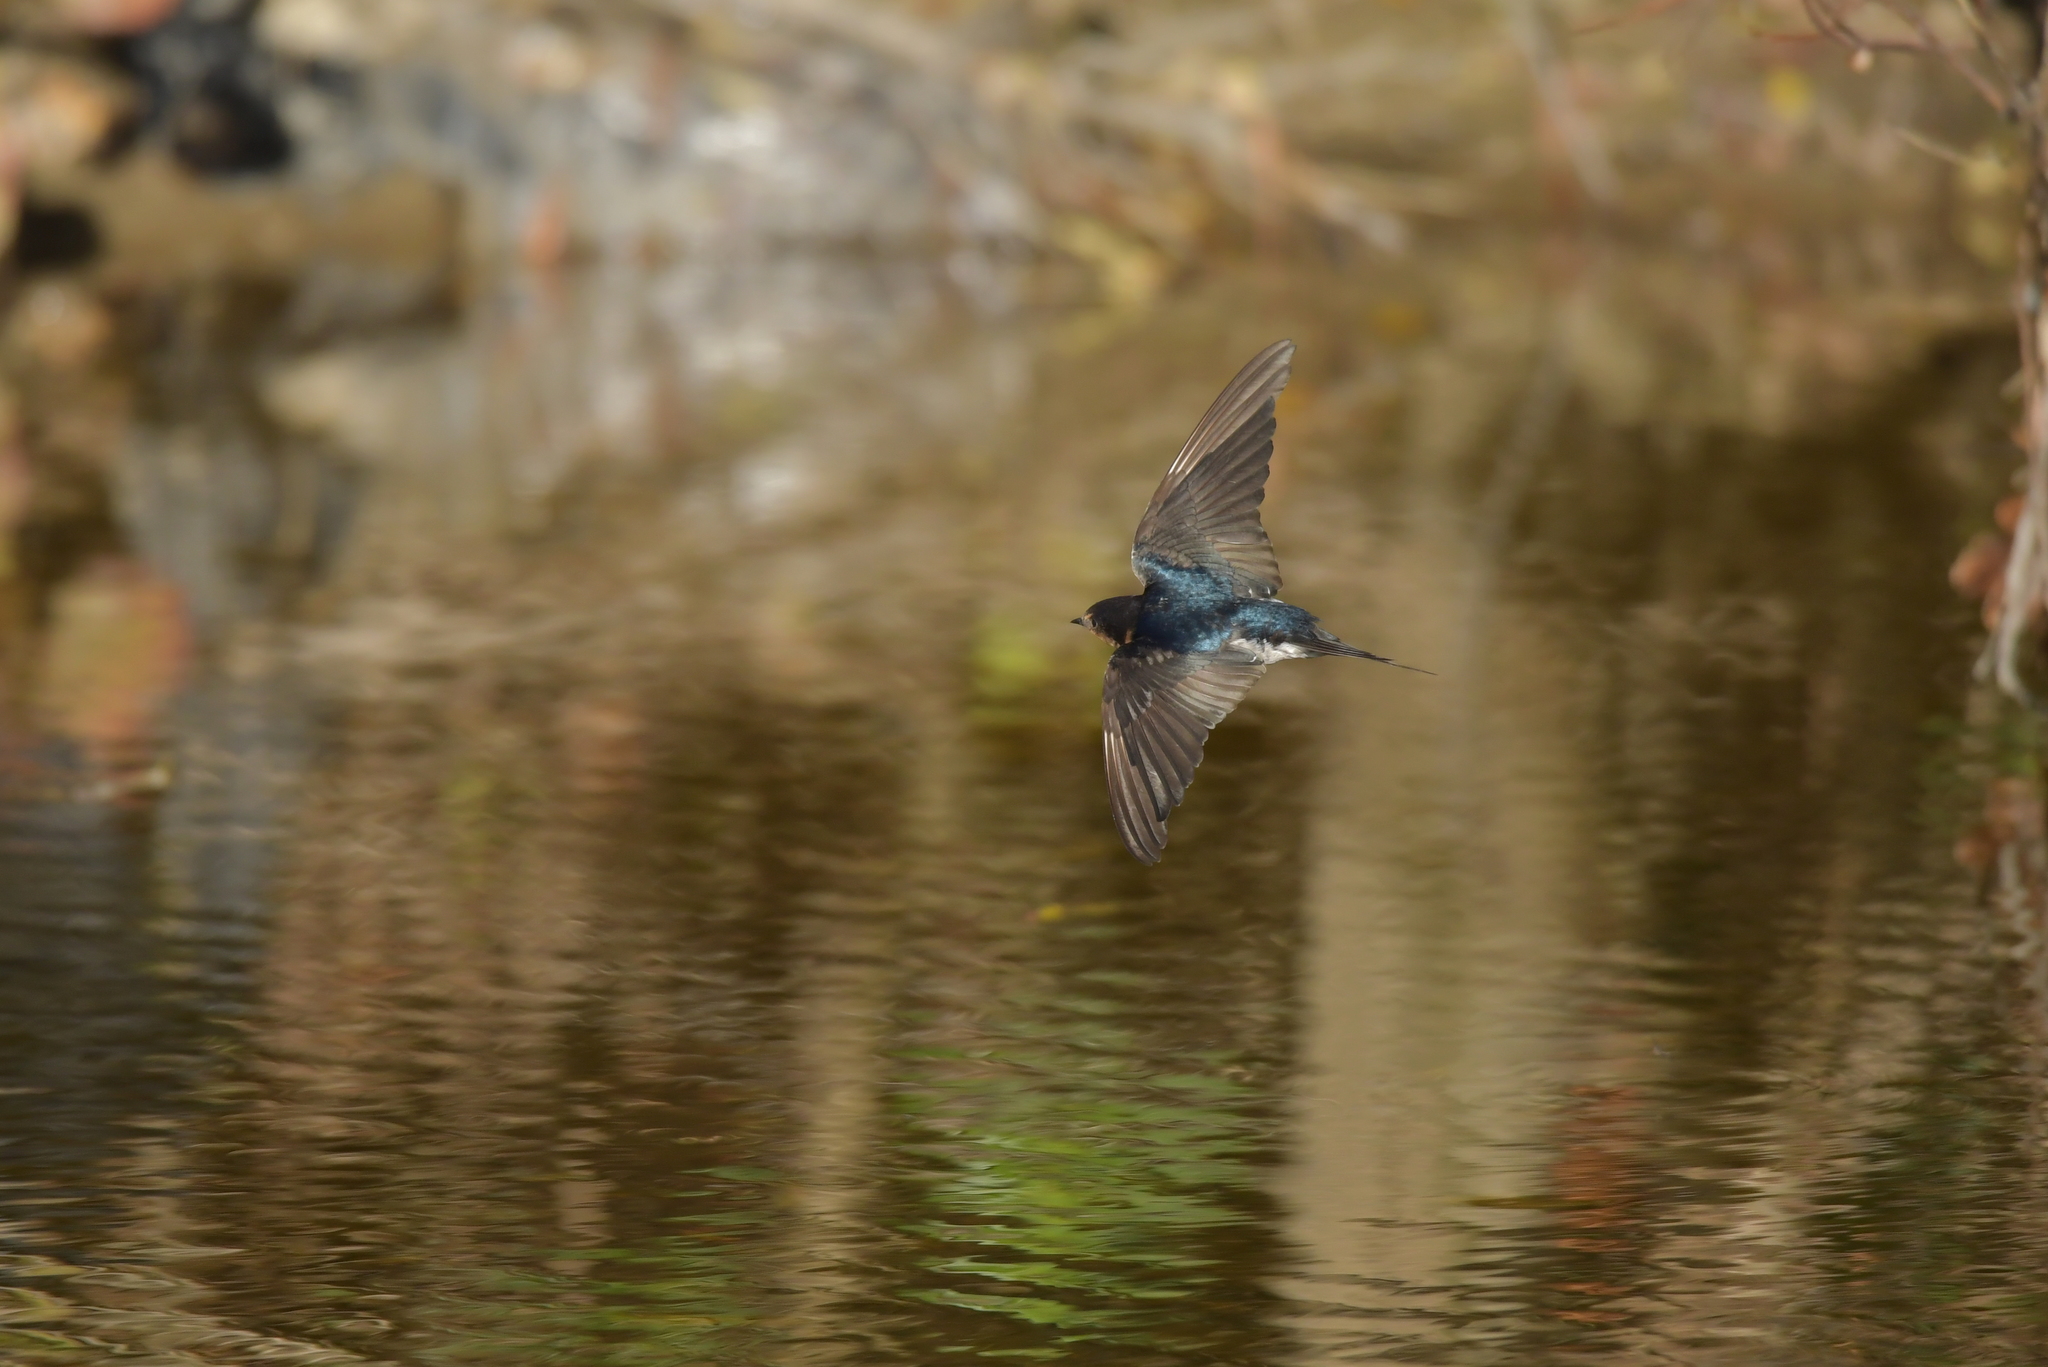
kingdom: Animalia
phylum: Chordata
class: Aves
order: Passeriformes
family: Hirundinidae
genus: Hirundo
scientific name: Hirundo neoxena
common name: Welcome swallow
